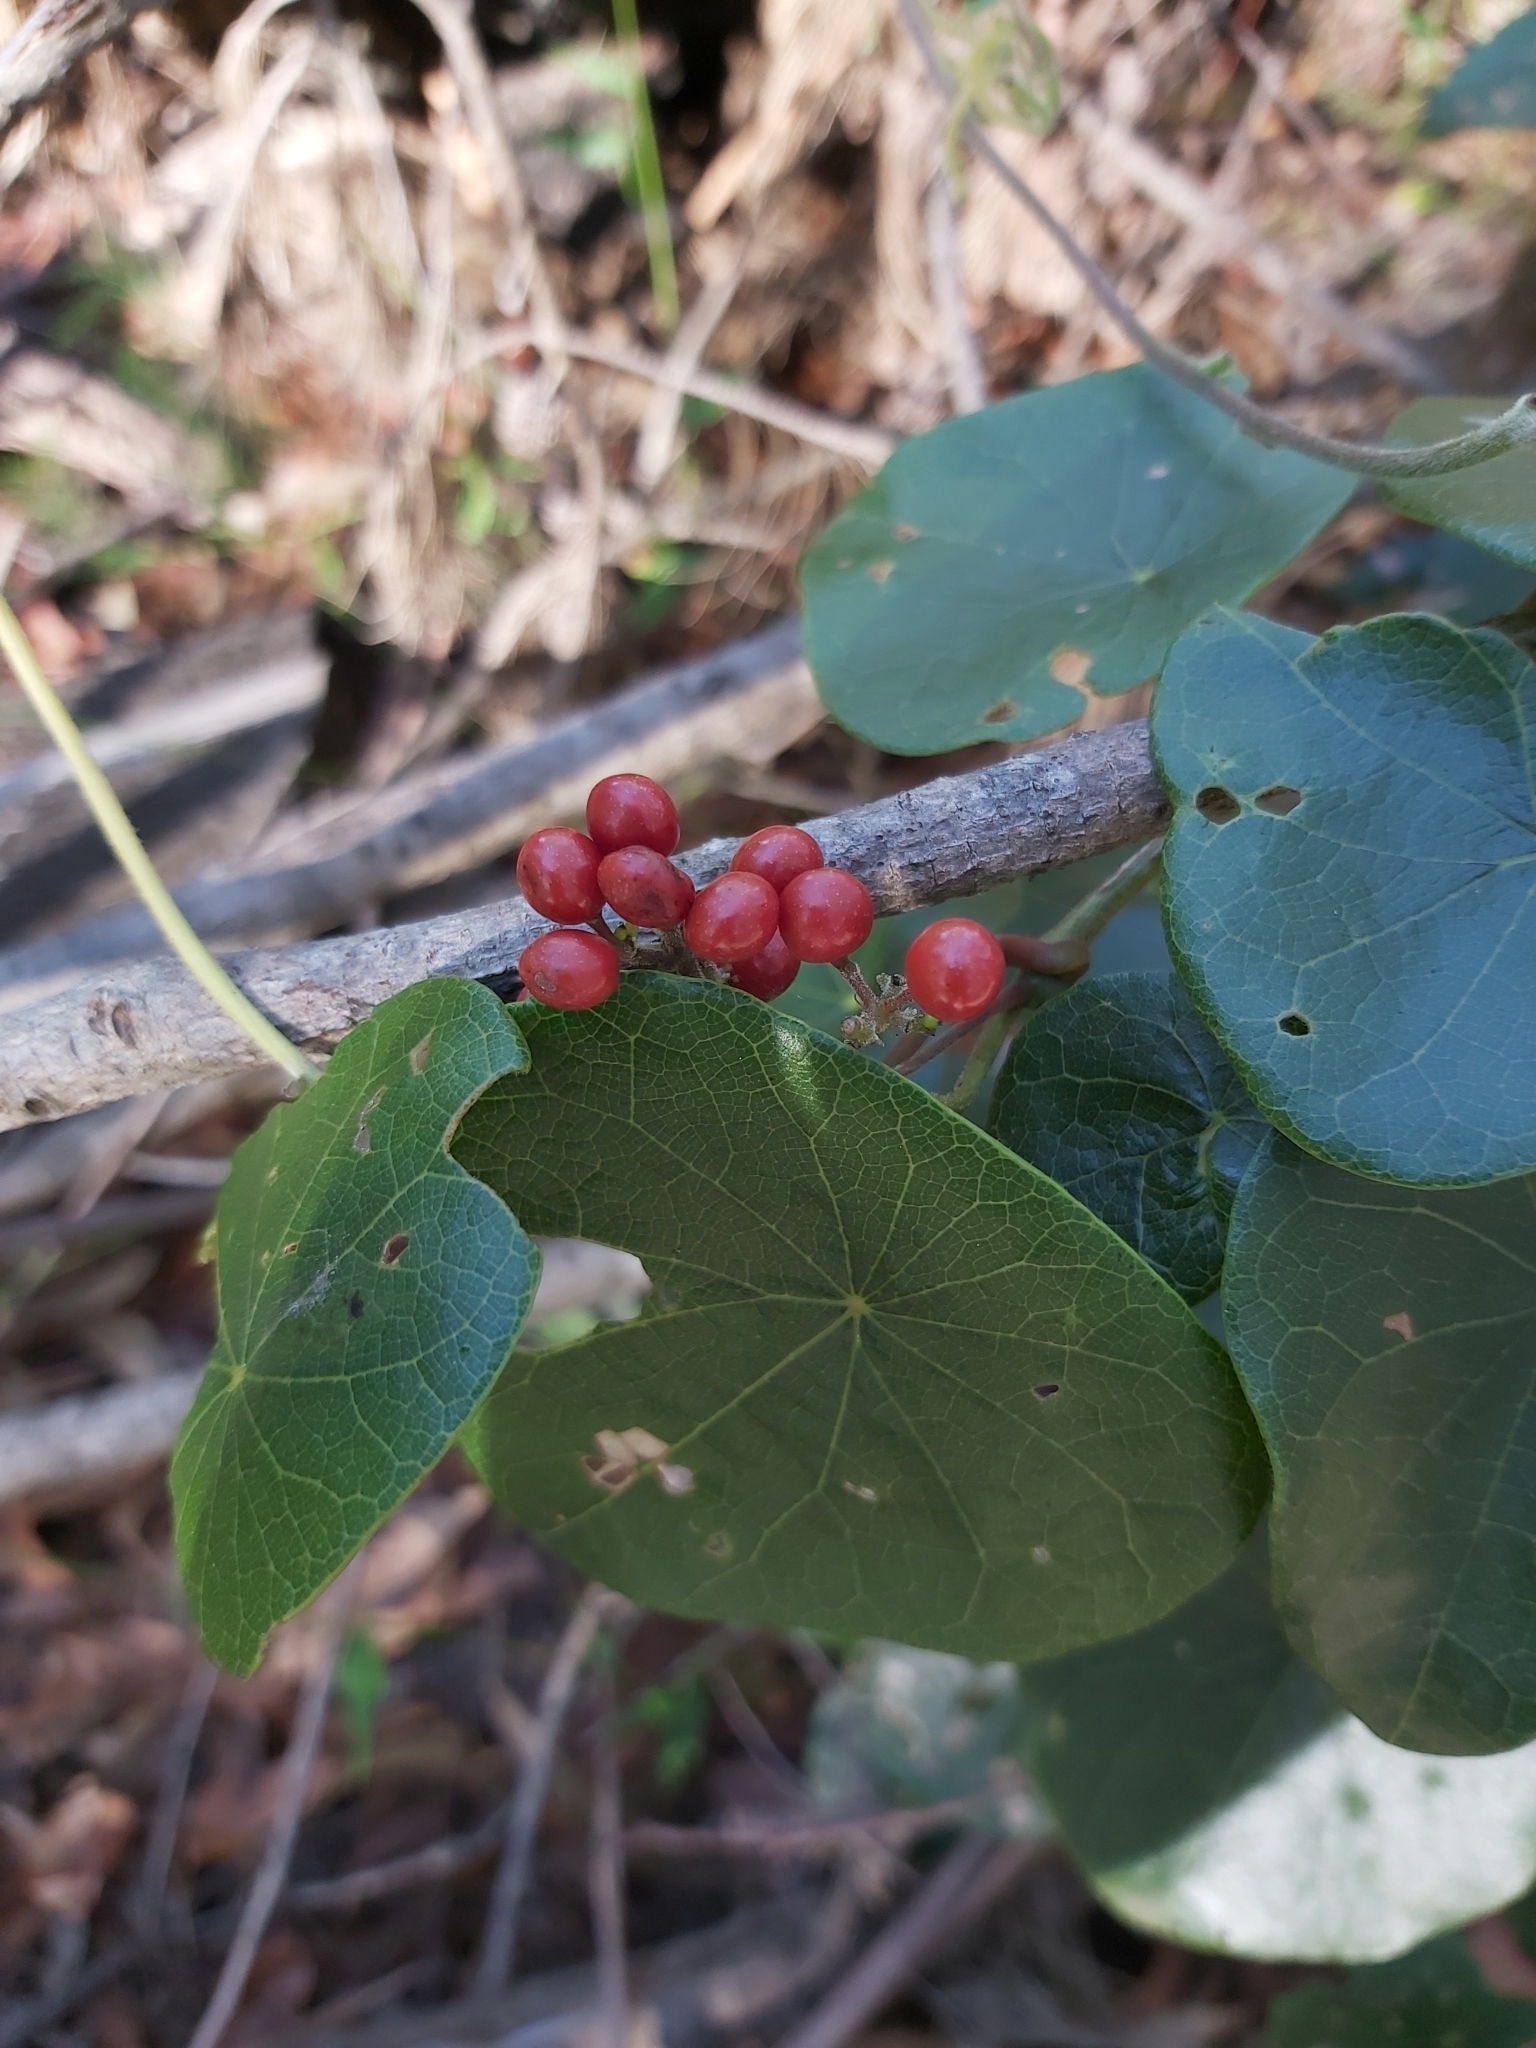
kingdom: Plantae
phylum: Tracheophyta
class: Magnoliopsida
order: Ranunculales
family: Menispermaceae
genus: Stephania
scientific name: Stephania japonica
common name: Snake vine
